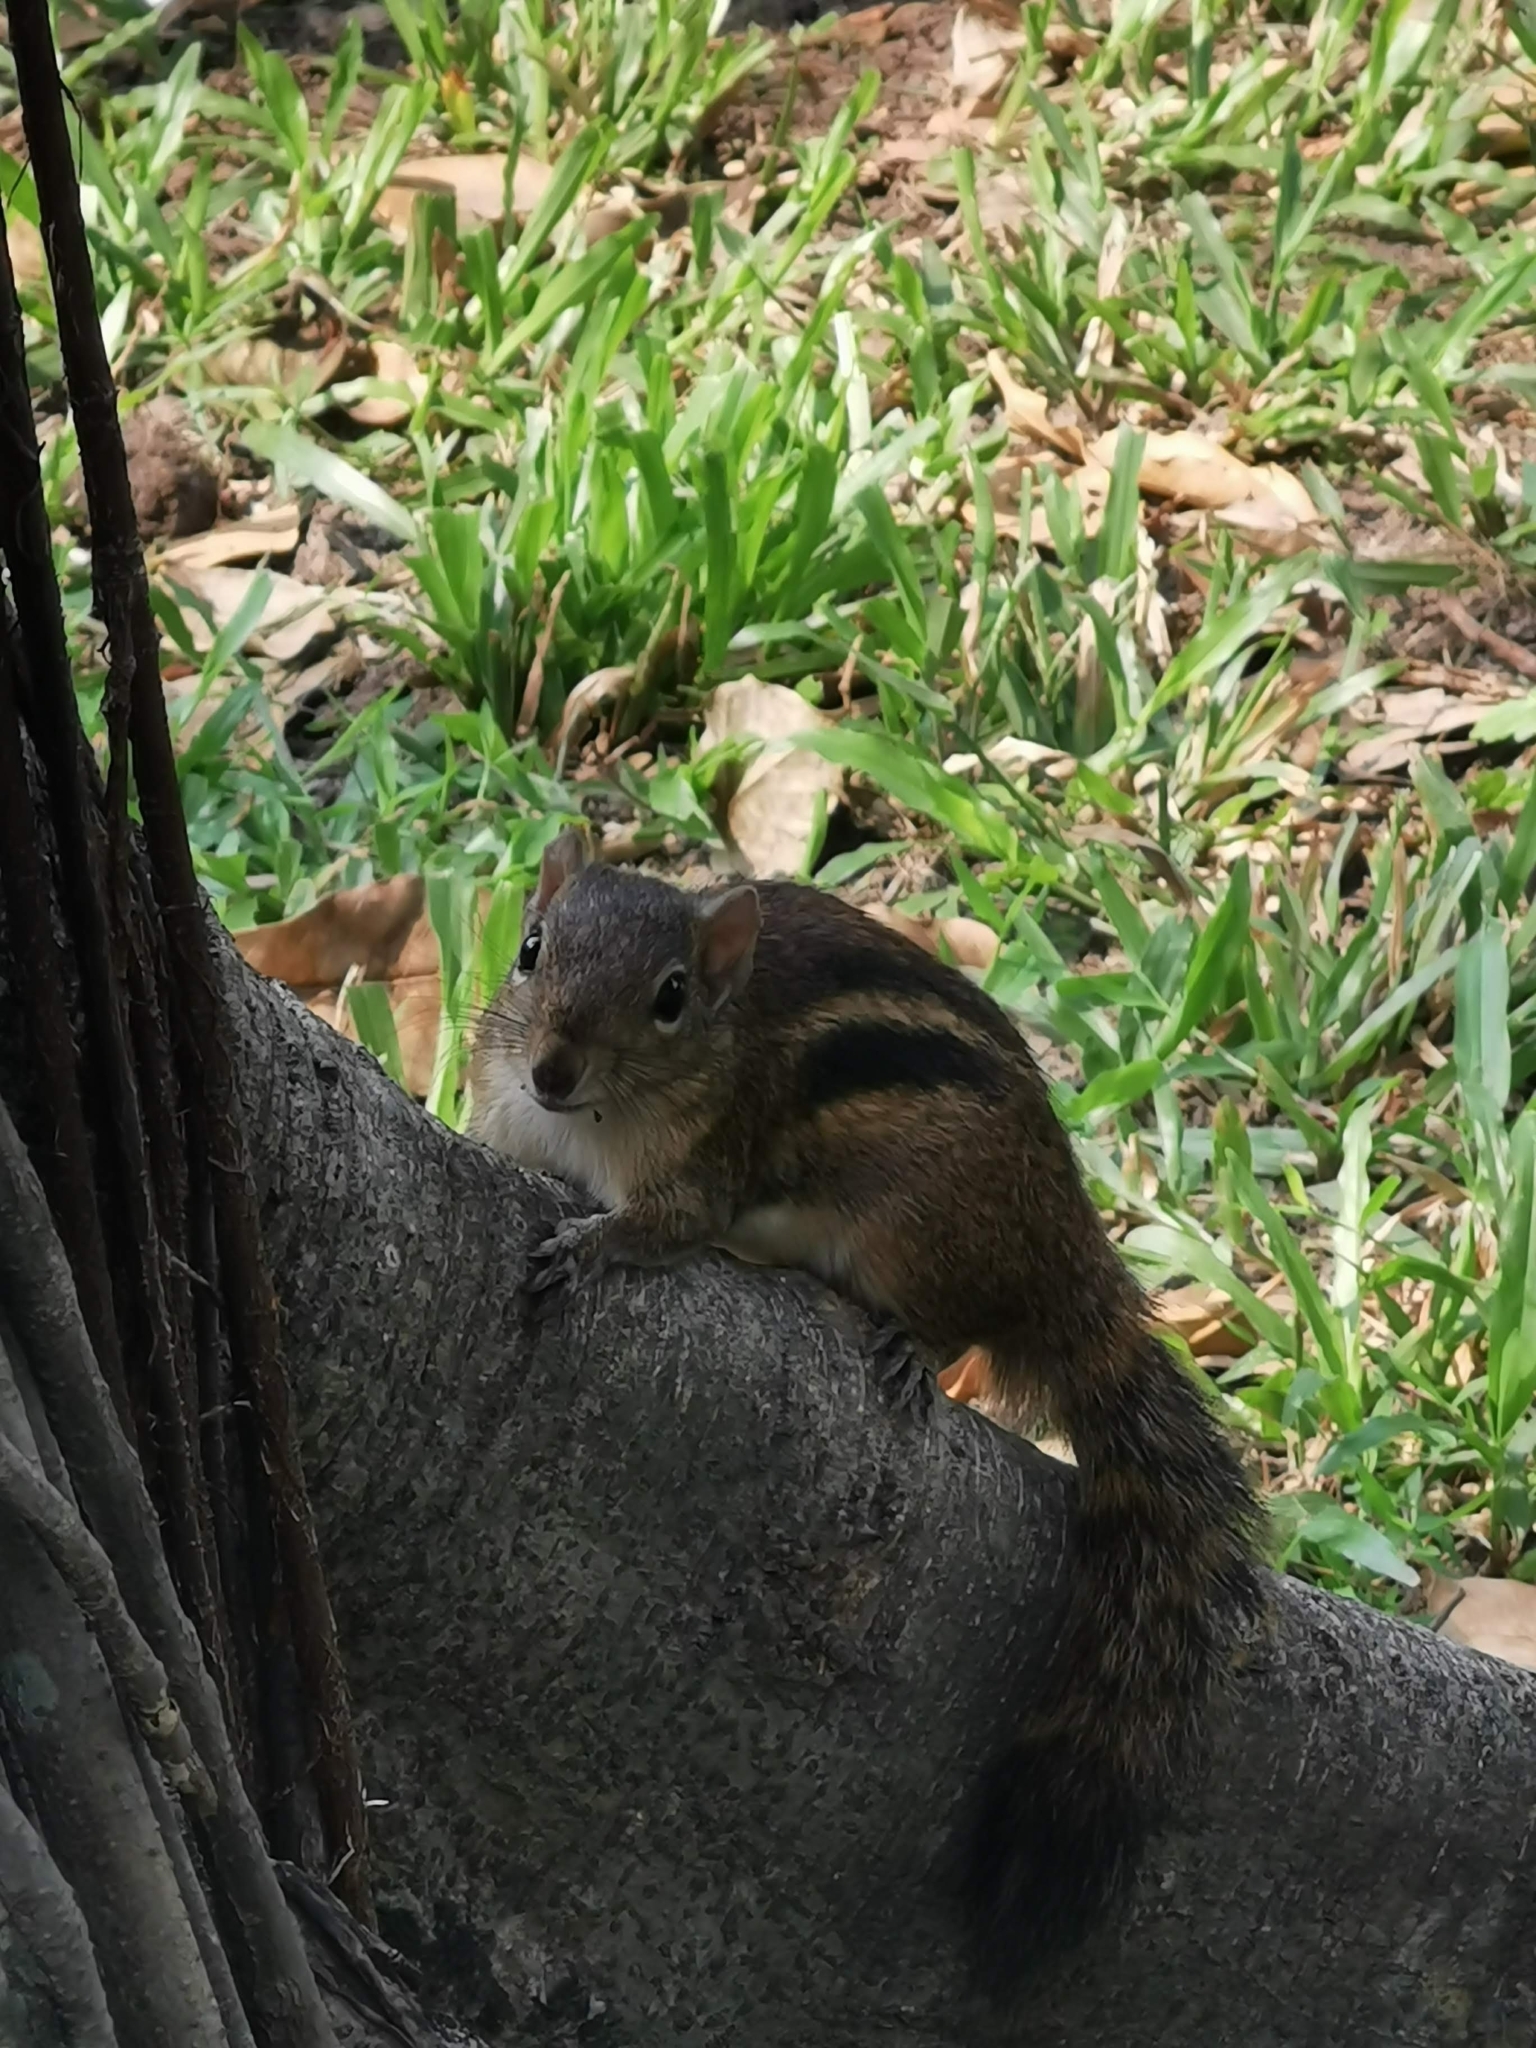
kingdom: Animalia
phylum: Chordata
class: Mammalia
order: Rodentia
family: Sciuridae
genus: Menetes
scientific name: Menetes berdmorei
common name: Indochinese ground squirrel
